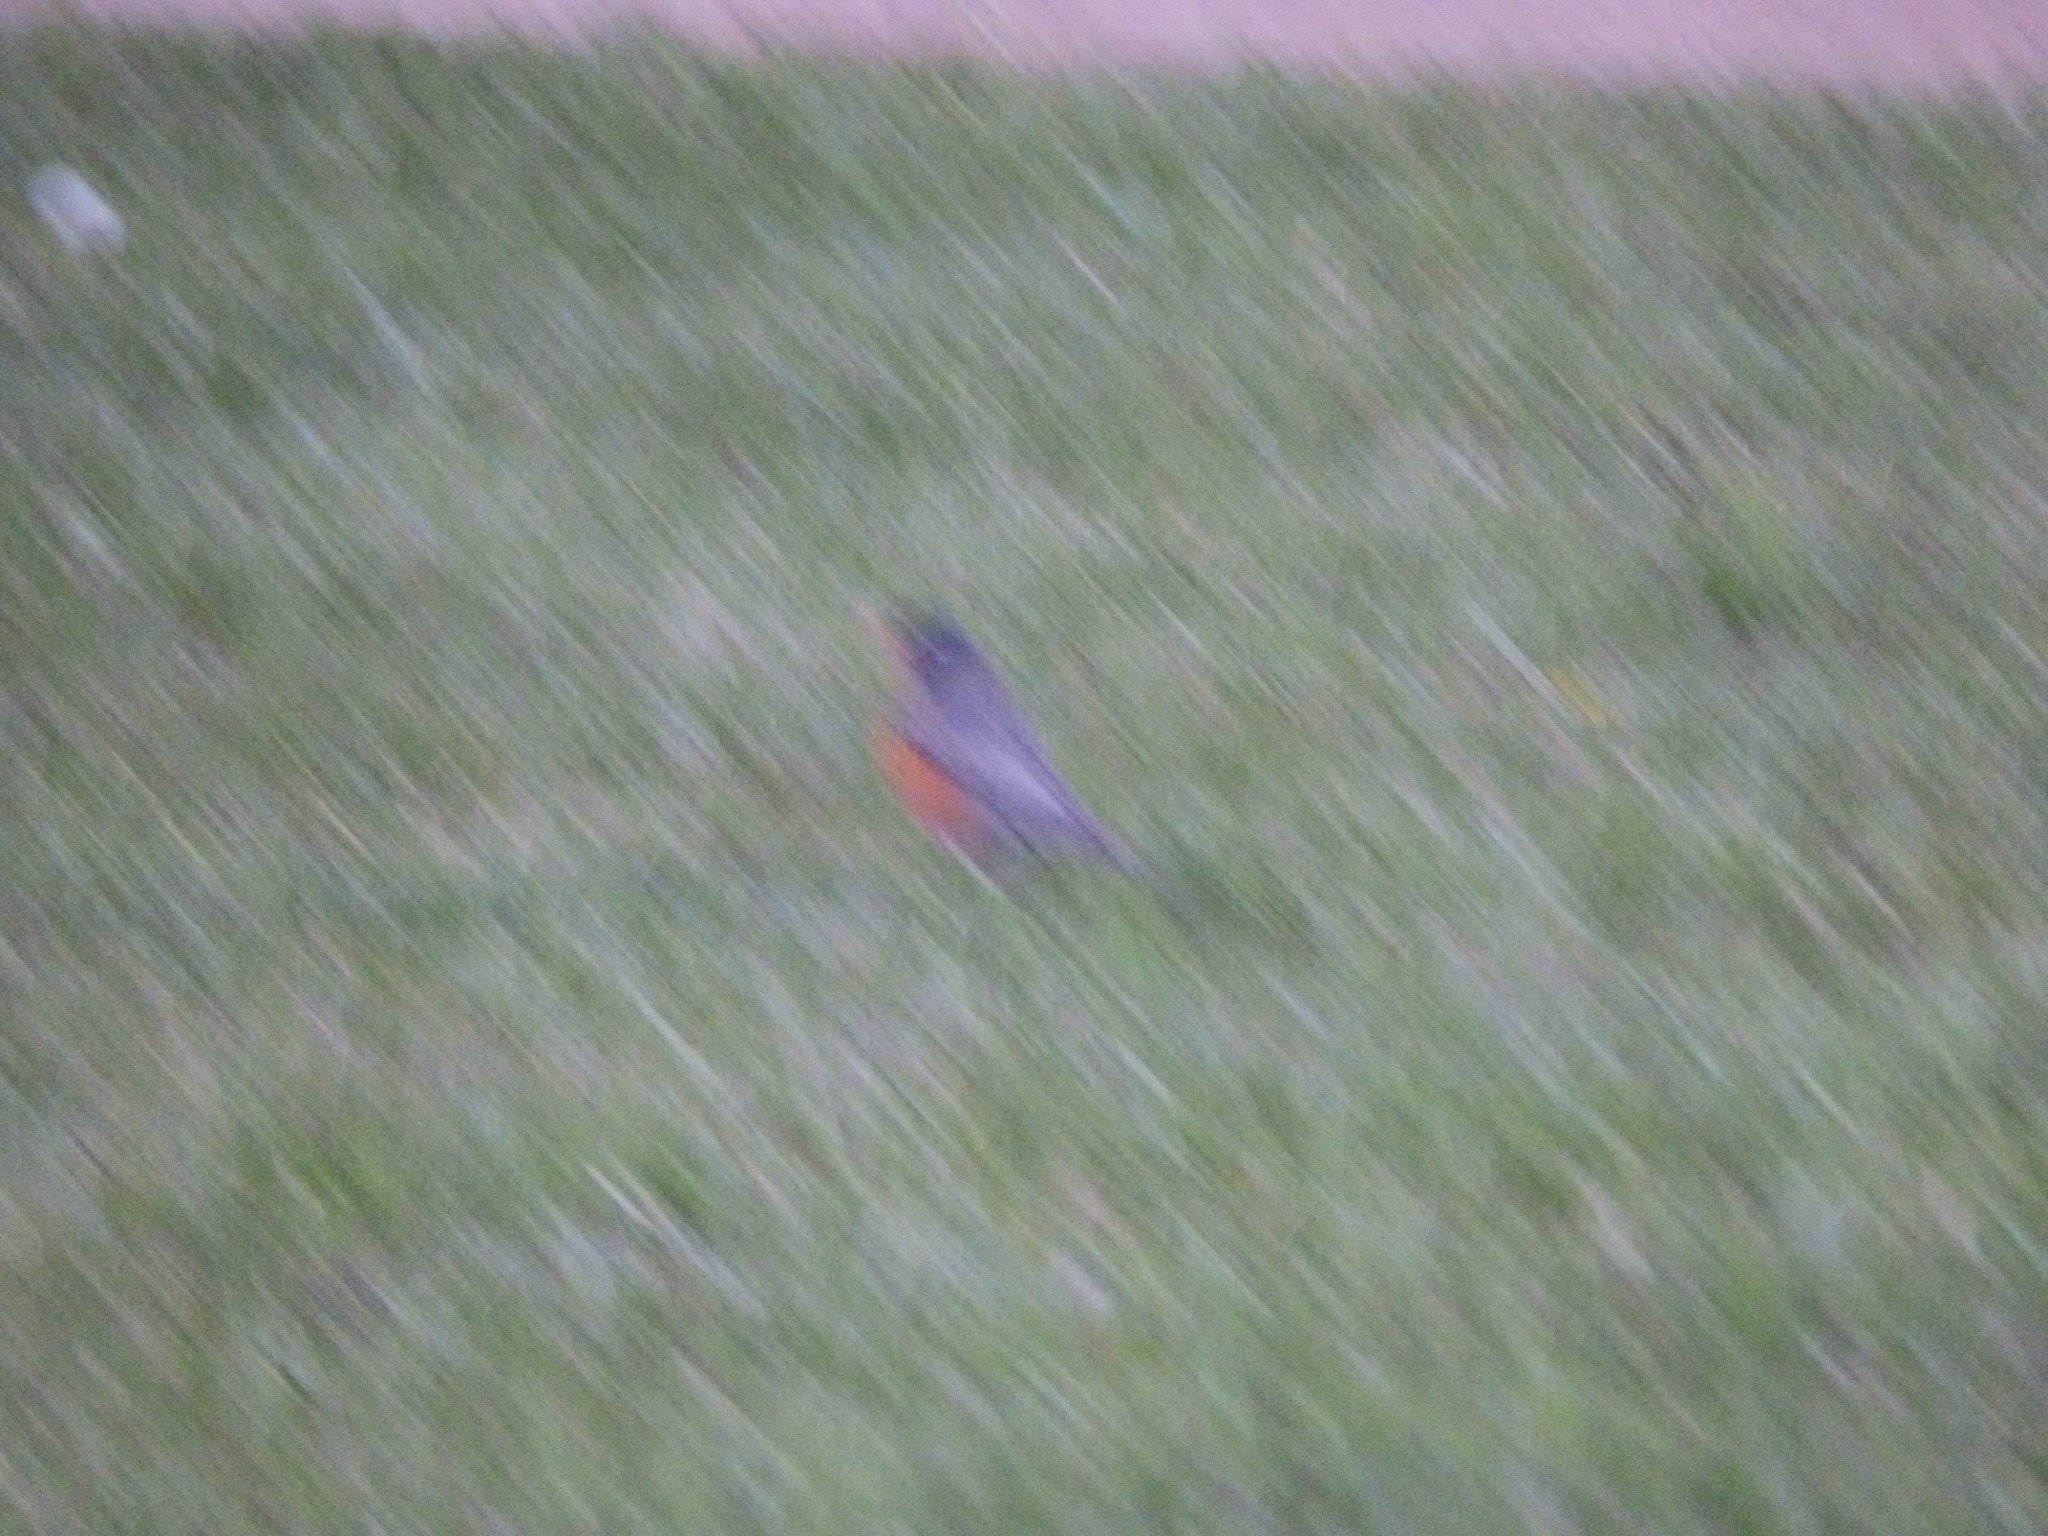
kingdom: Animalia
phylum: Chordata
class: Aves
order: Passeriformes
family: Turdidae
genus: Turdus
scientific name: Turdus migratorius
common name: American robin
